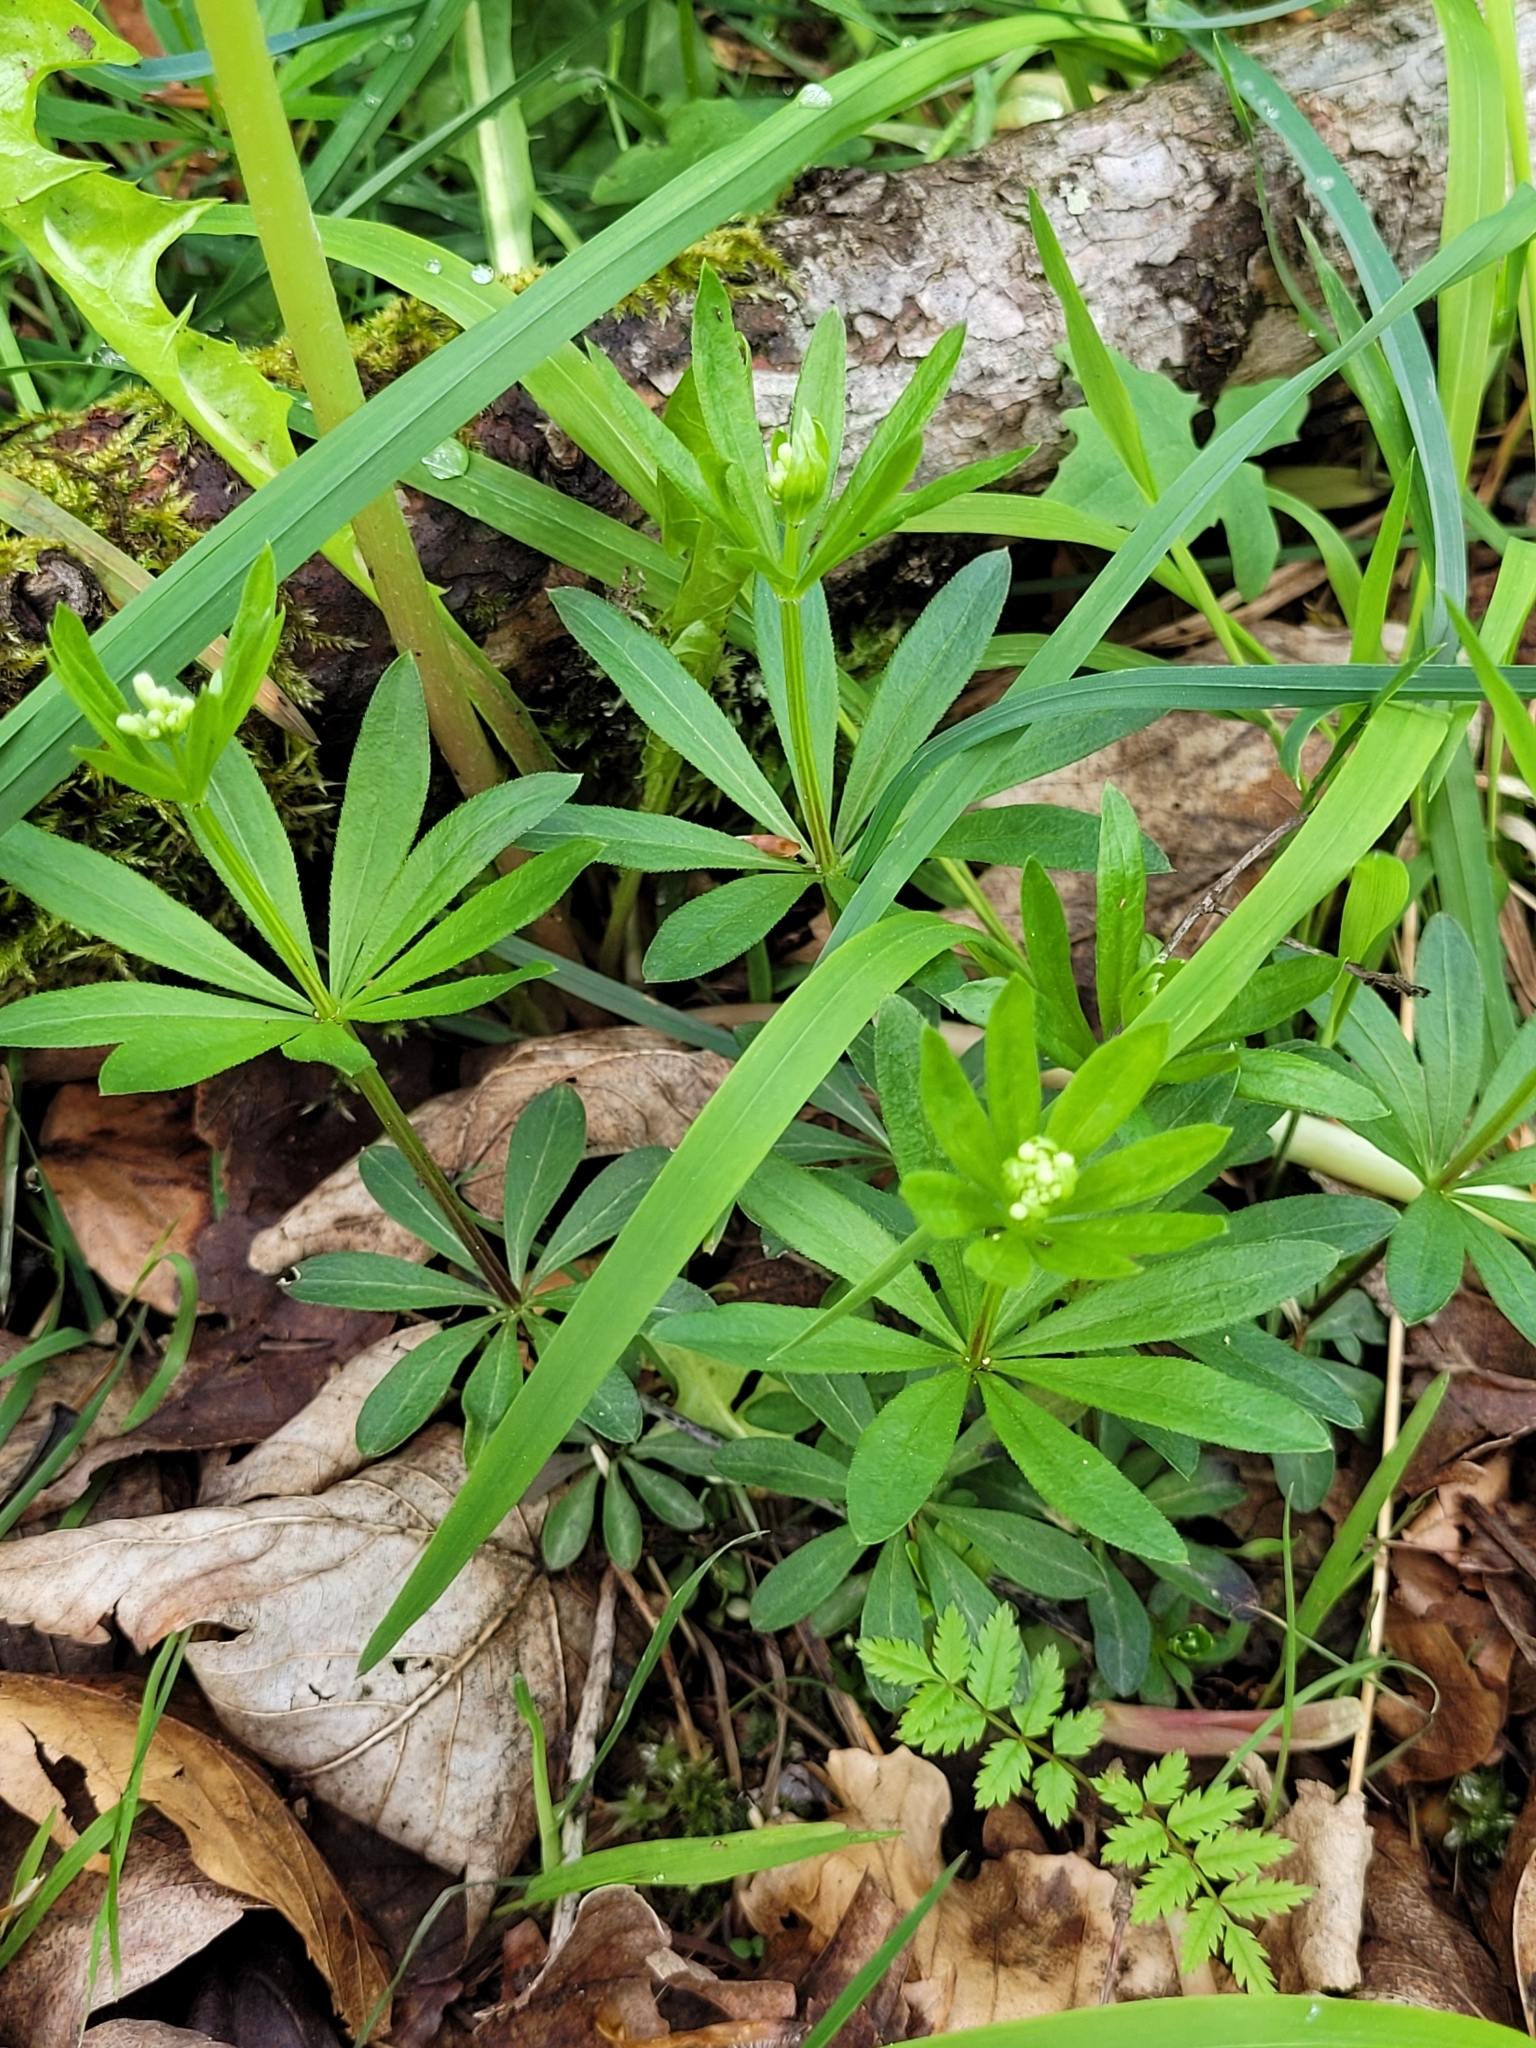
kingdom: Plantae
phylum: Tracheophyta
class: Magnoliopsida
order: Gentianales
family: Rubiaceae
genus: Galium
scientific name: Galium odoratum
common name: Sweet woodruff
